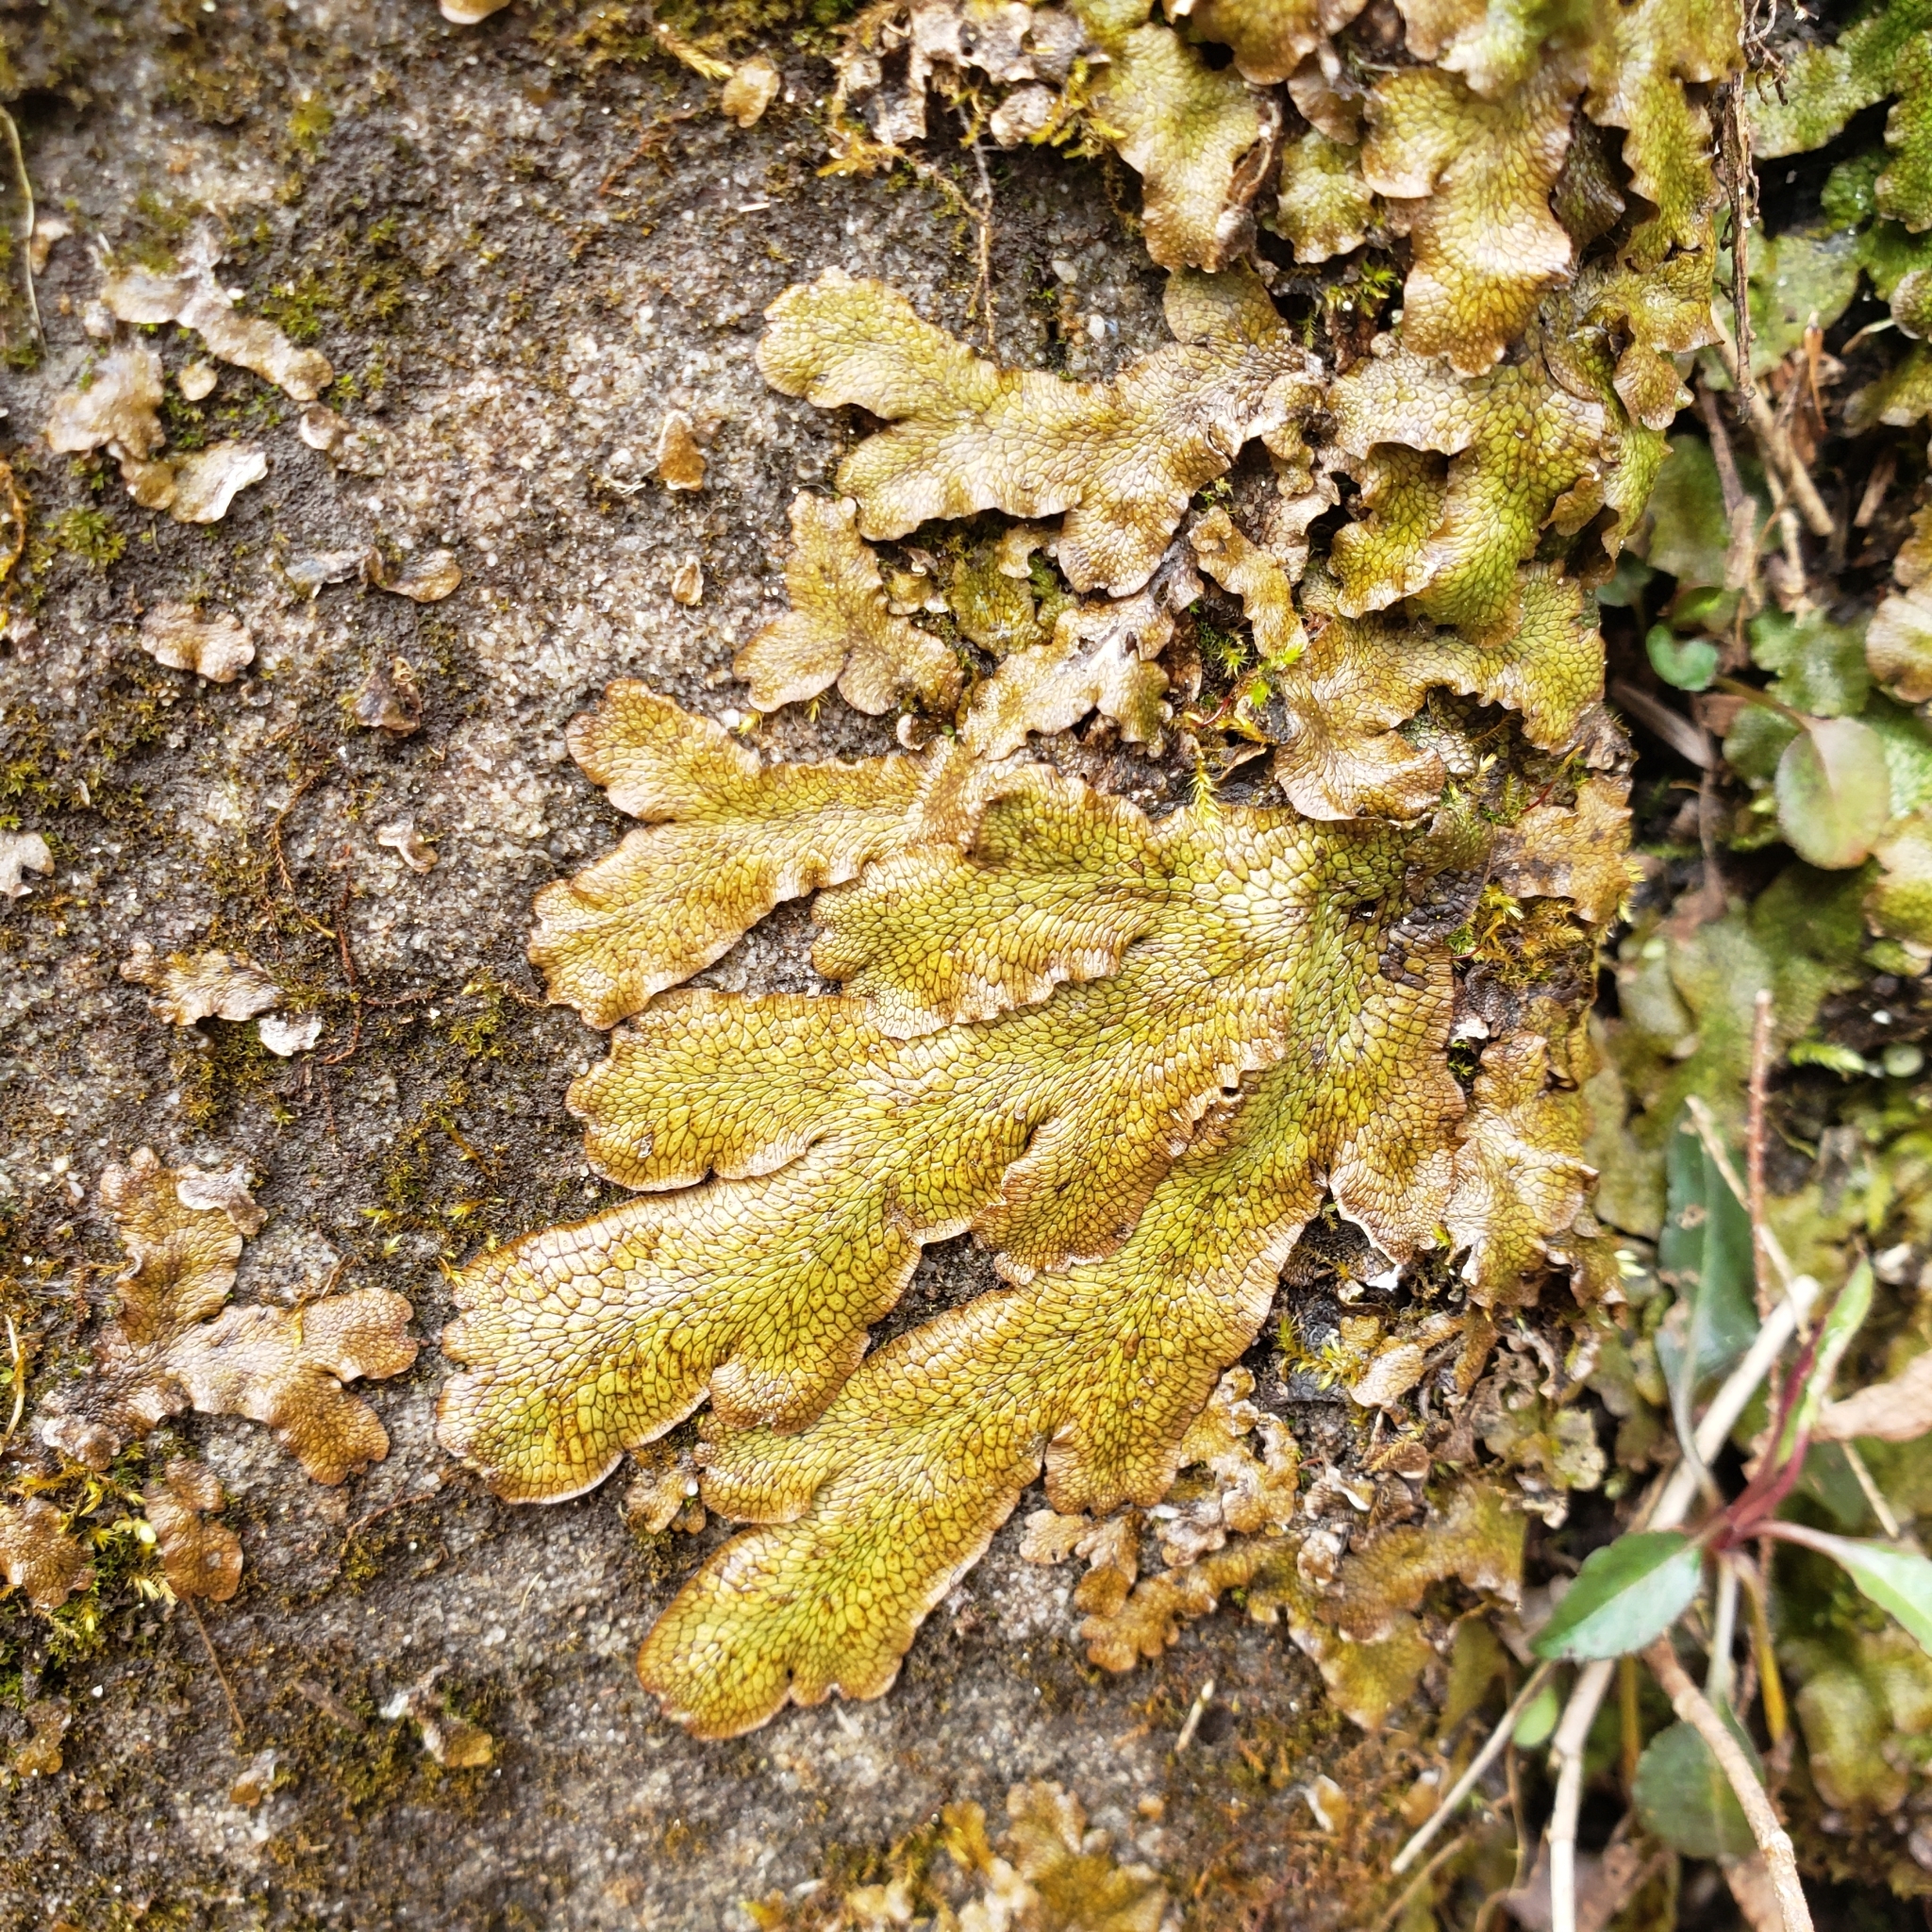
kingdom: Plantae
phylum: Marchantiophyta
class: Marchantiopsida
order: Marchantiales
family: Conocephalaceae
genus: Conocephalum
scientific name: Conocephalum salebrosum
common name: Cat-tongue liverwort
